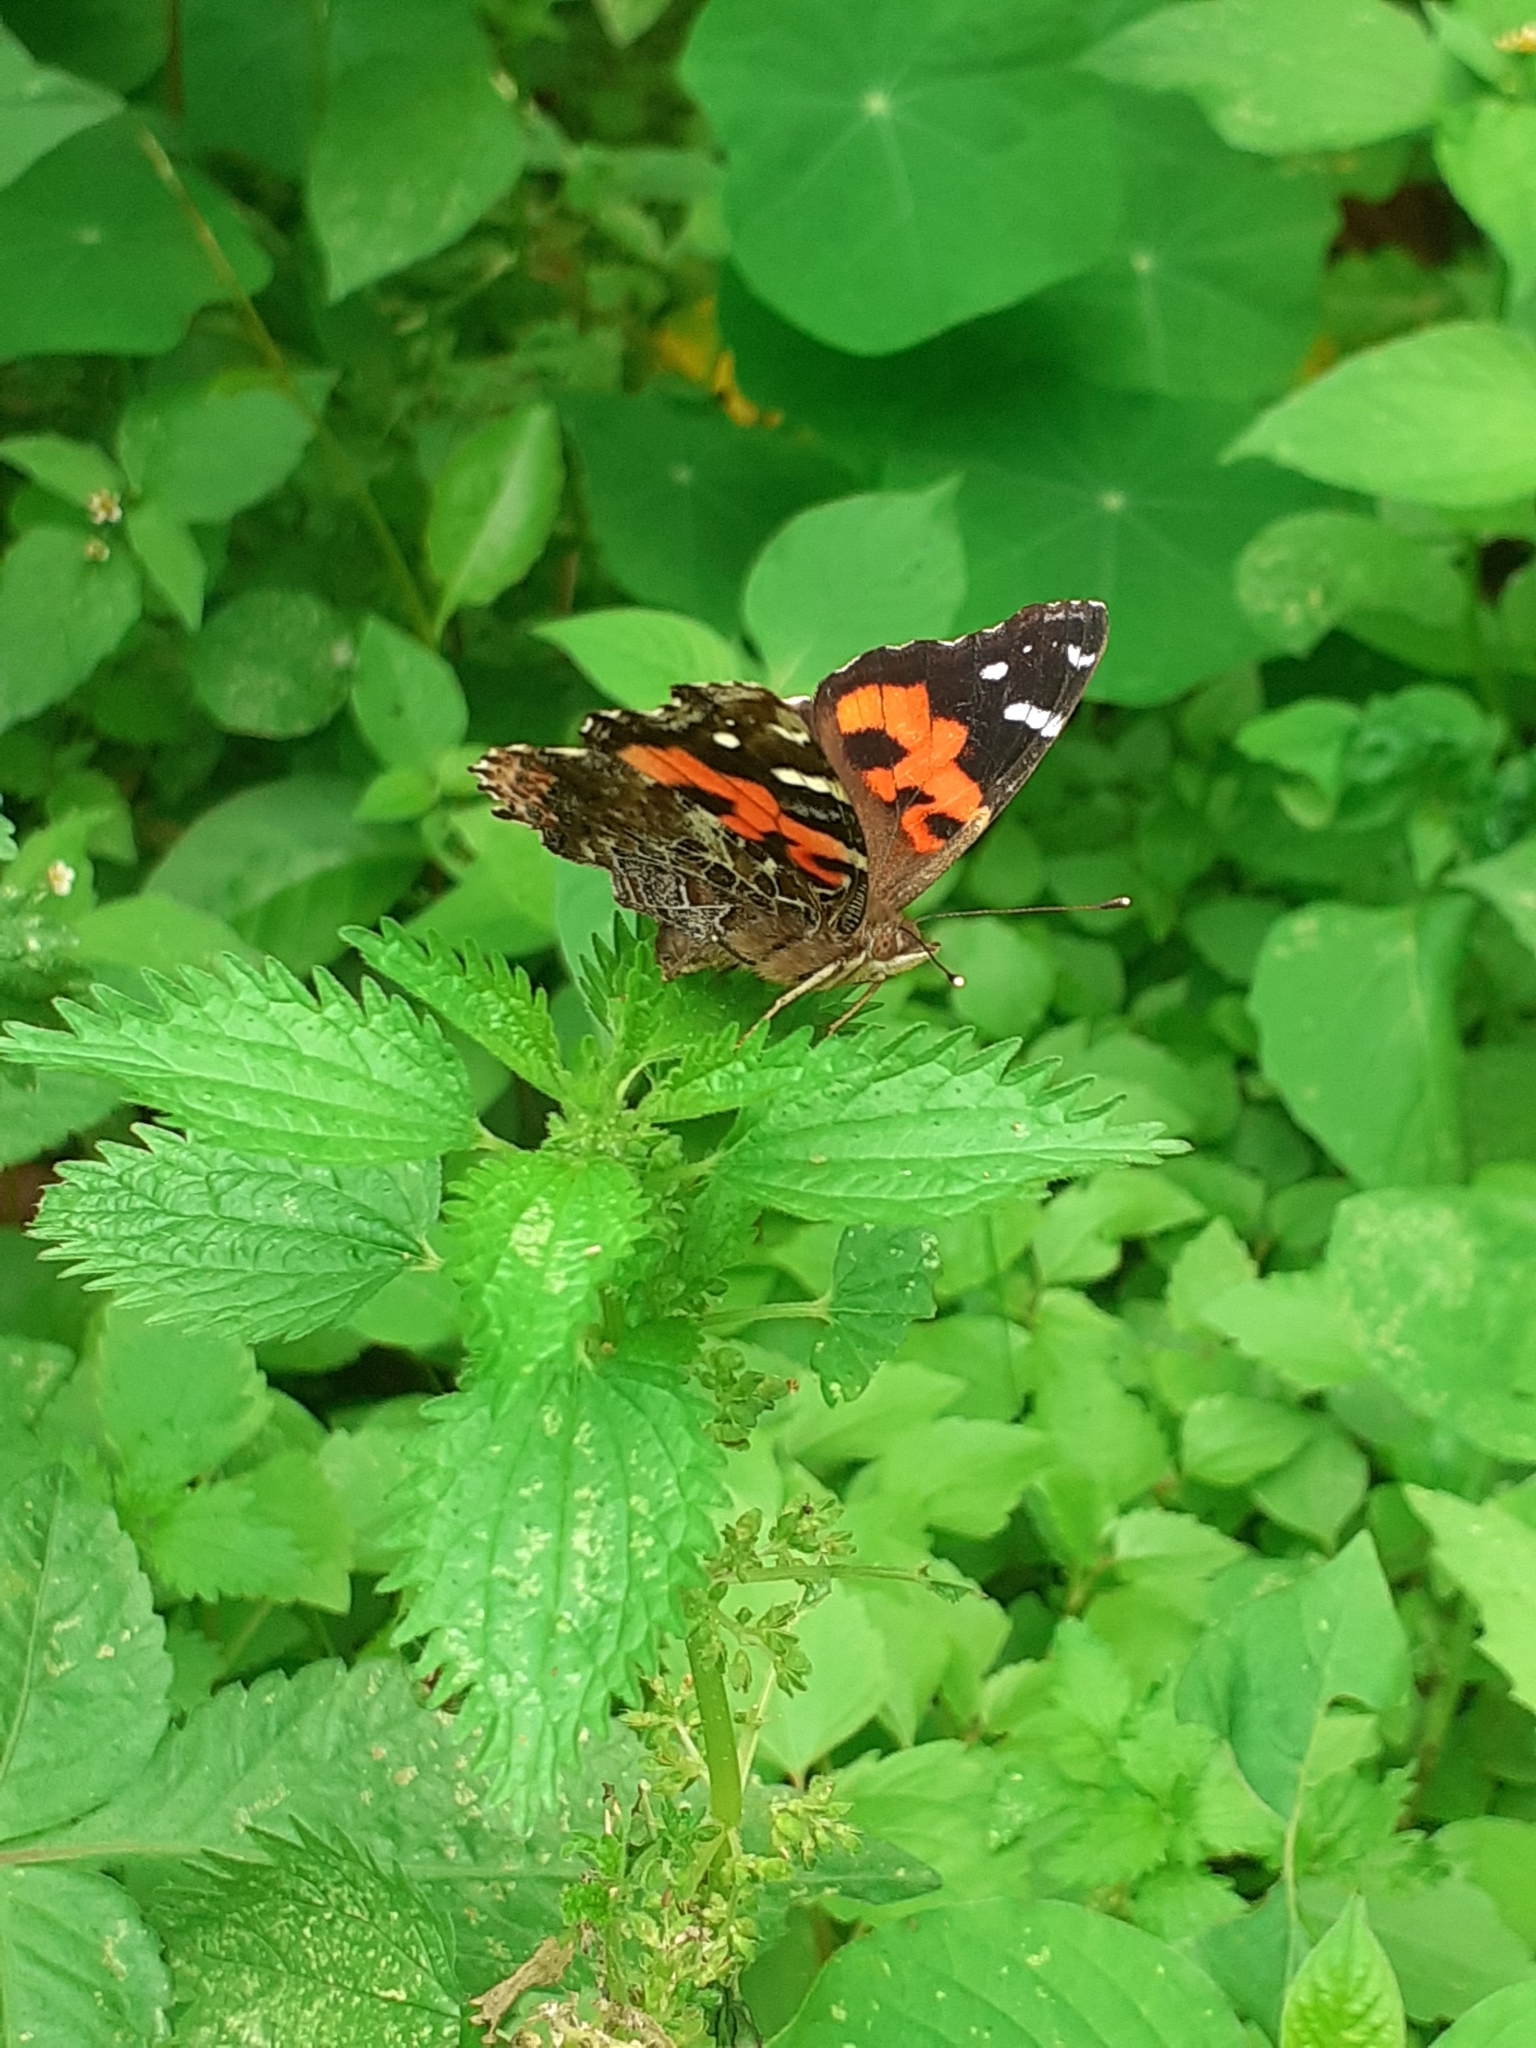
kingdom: Animalia
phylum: Arthropoda
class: Insecta
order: Lepidoptera
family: Nymphalidae
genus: Vanessa
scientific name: Vanessa vulcania
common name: Canary red admiral
